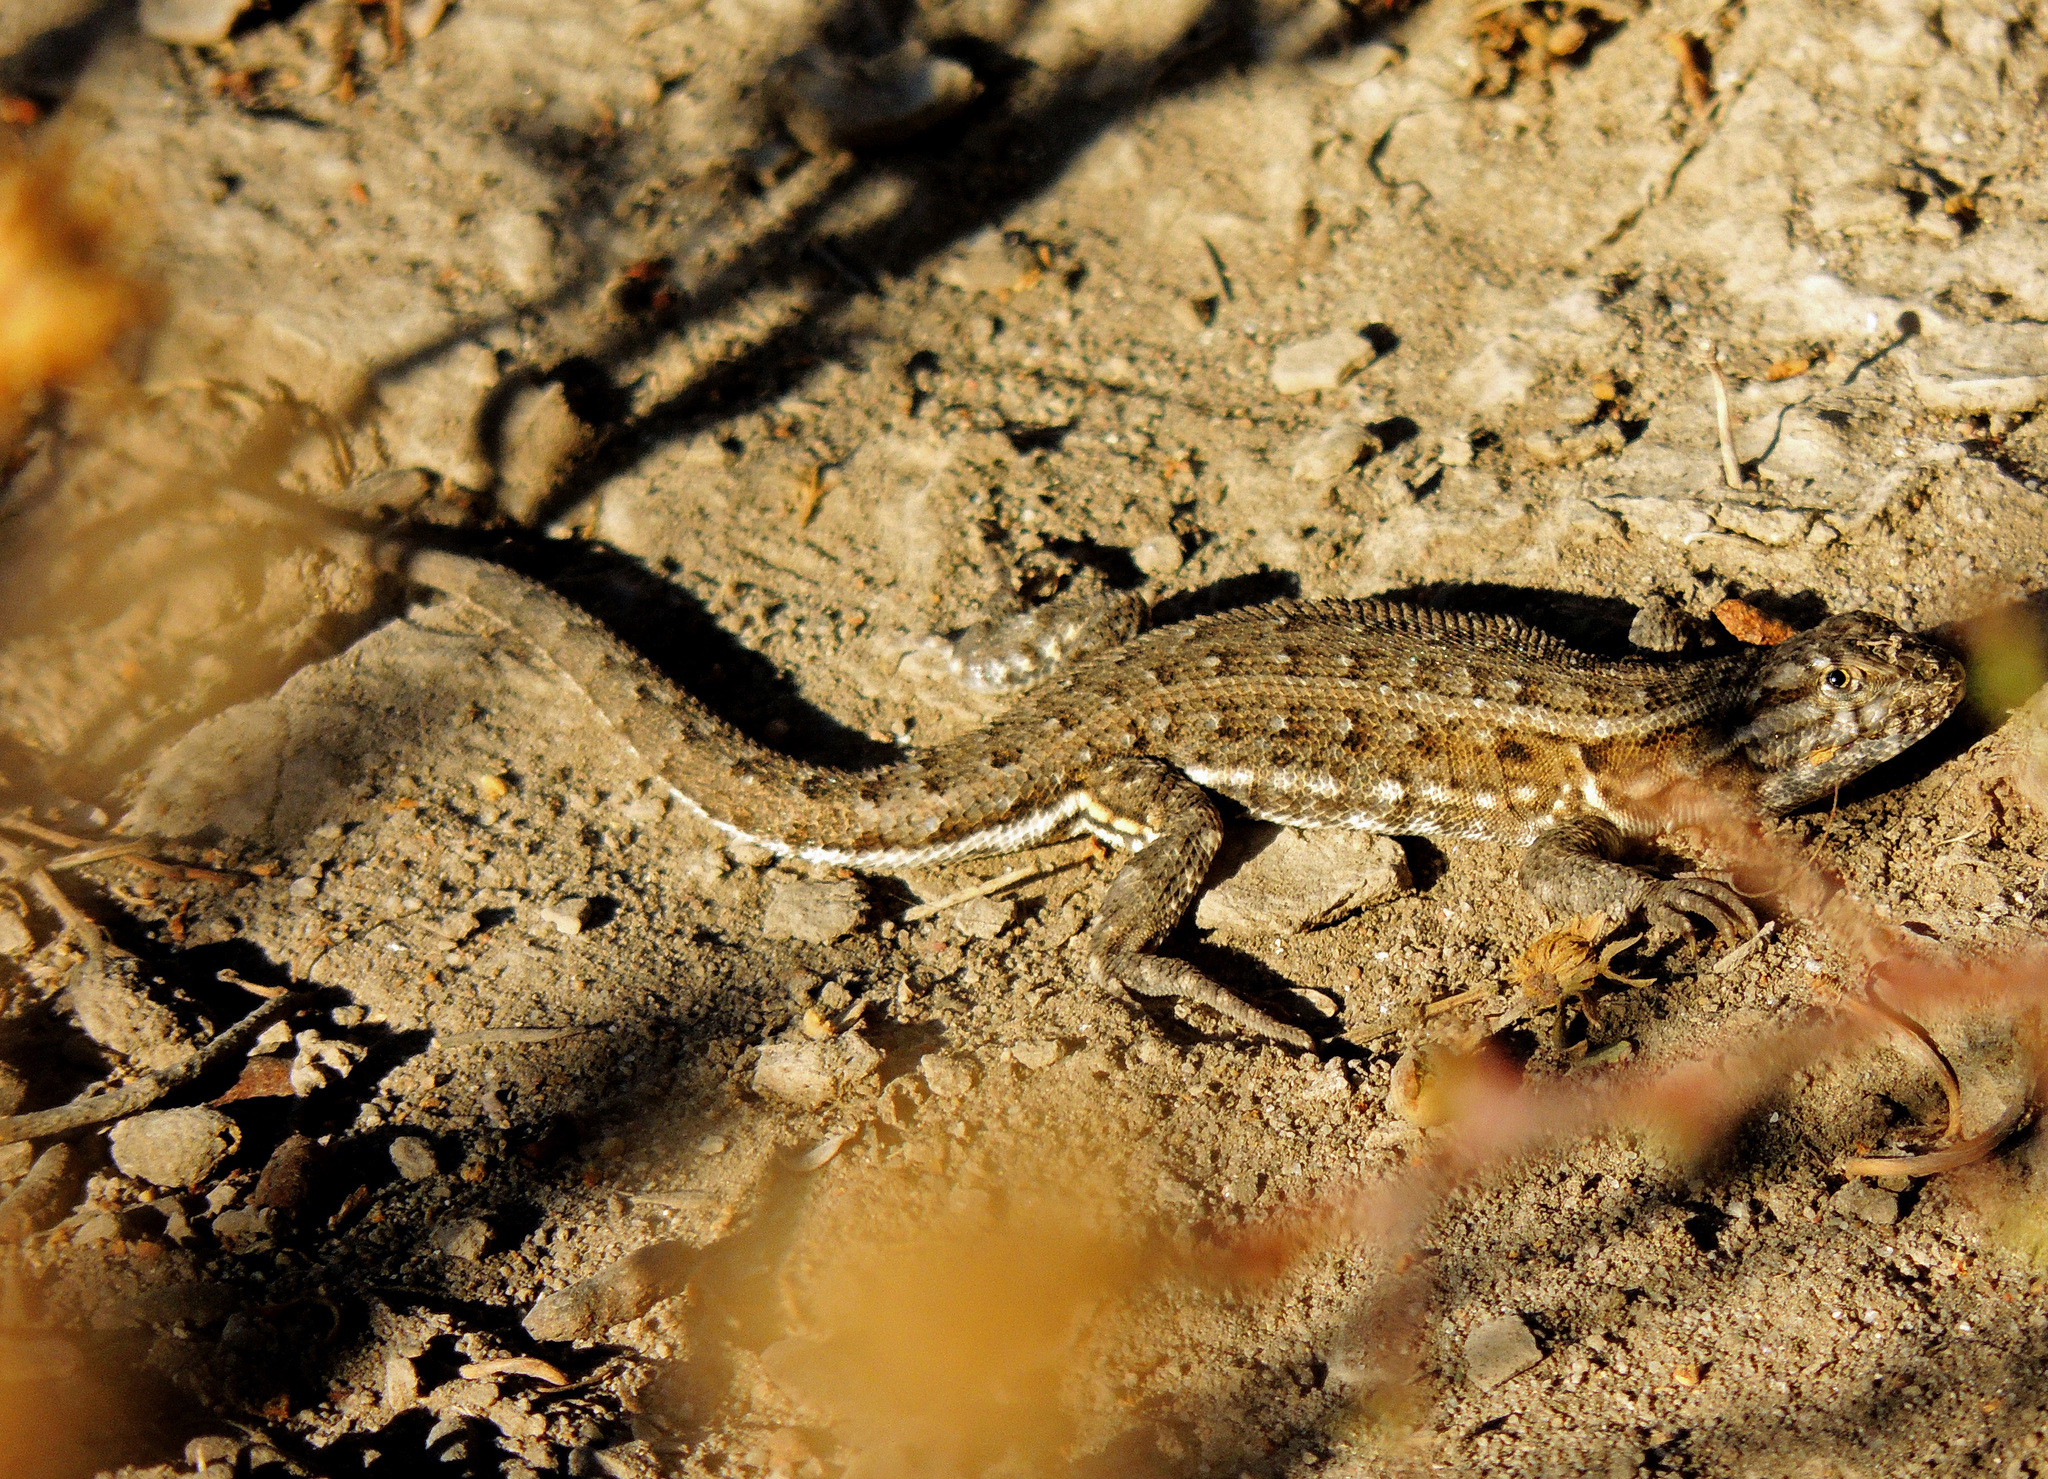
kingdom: Animalia
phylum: Chordata
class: Squamata
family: Liolaemidae
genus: Liolaemus
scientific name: Liolaemus darwinii
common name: Darwin's tree iguana
